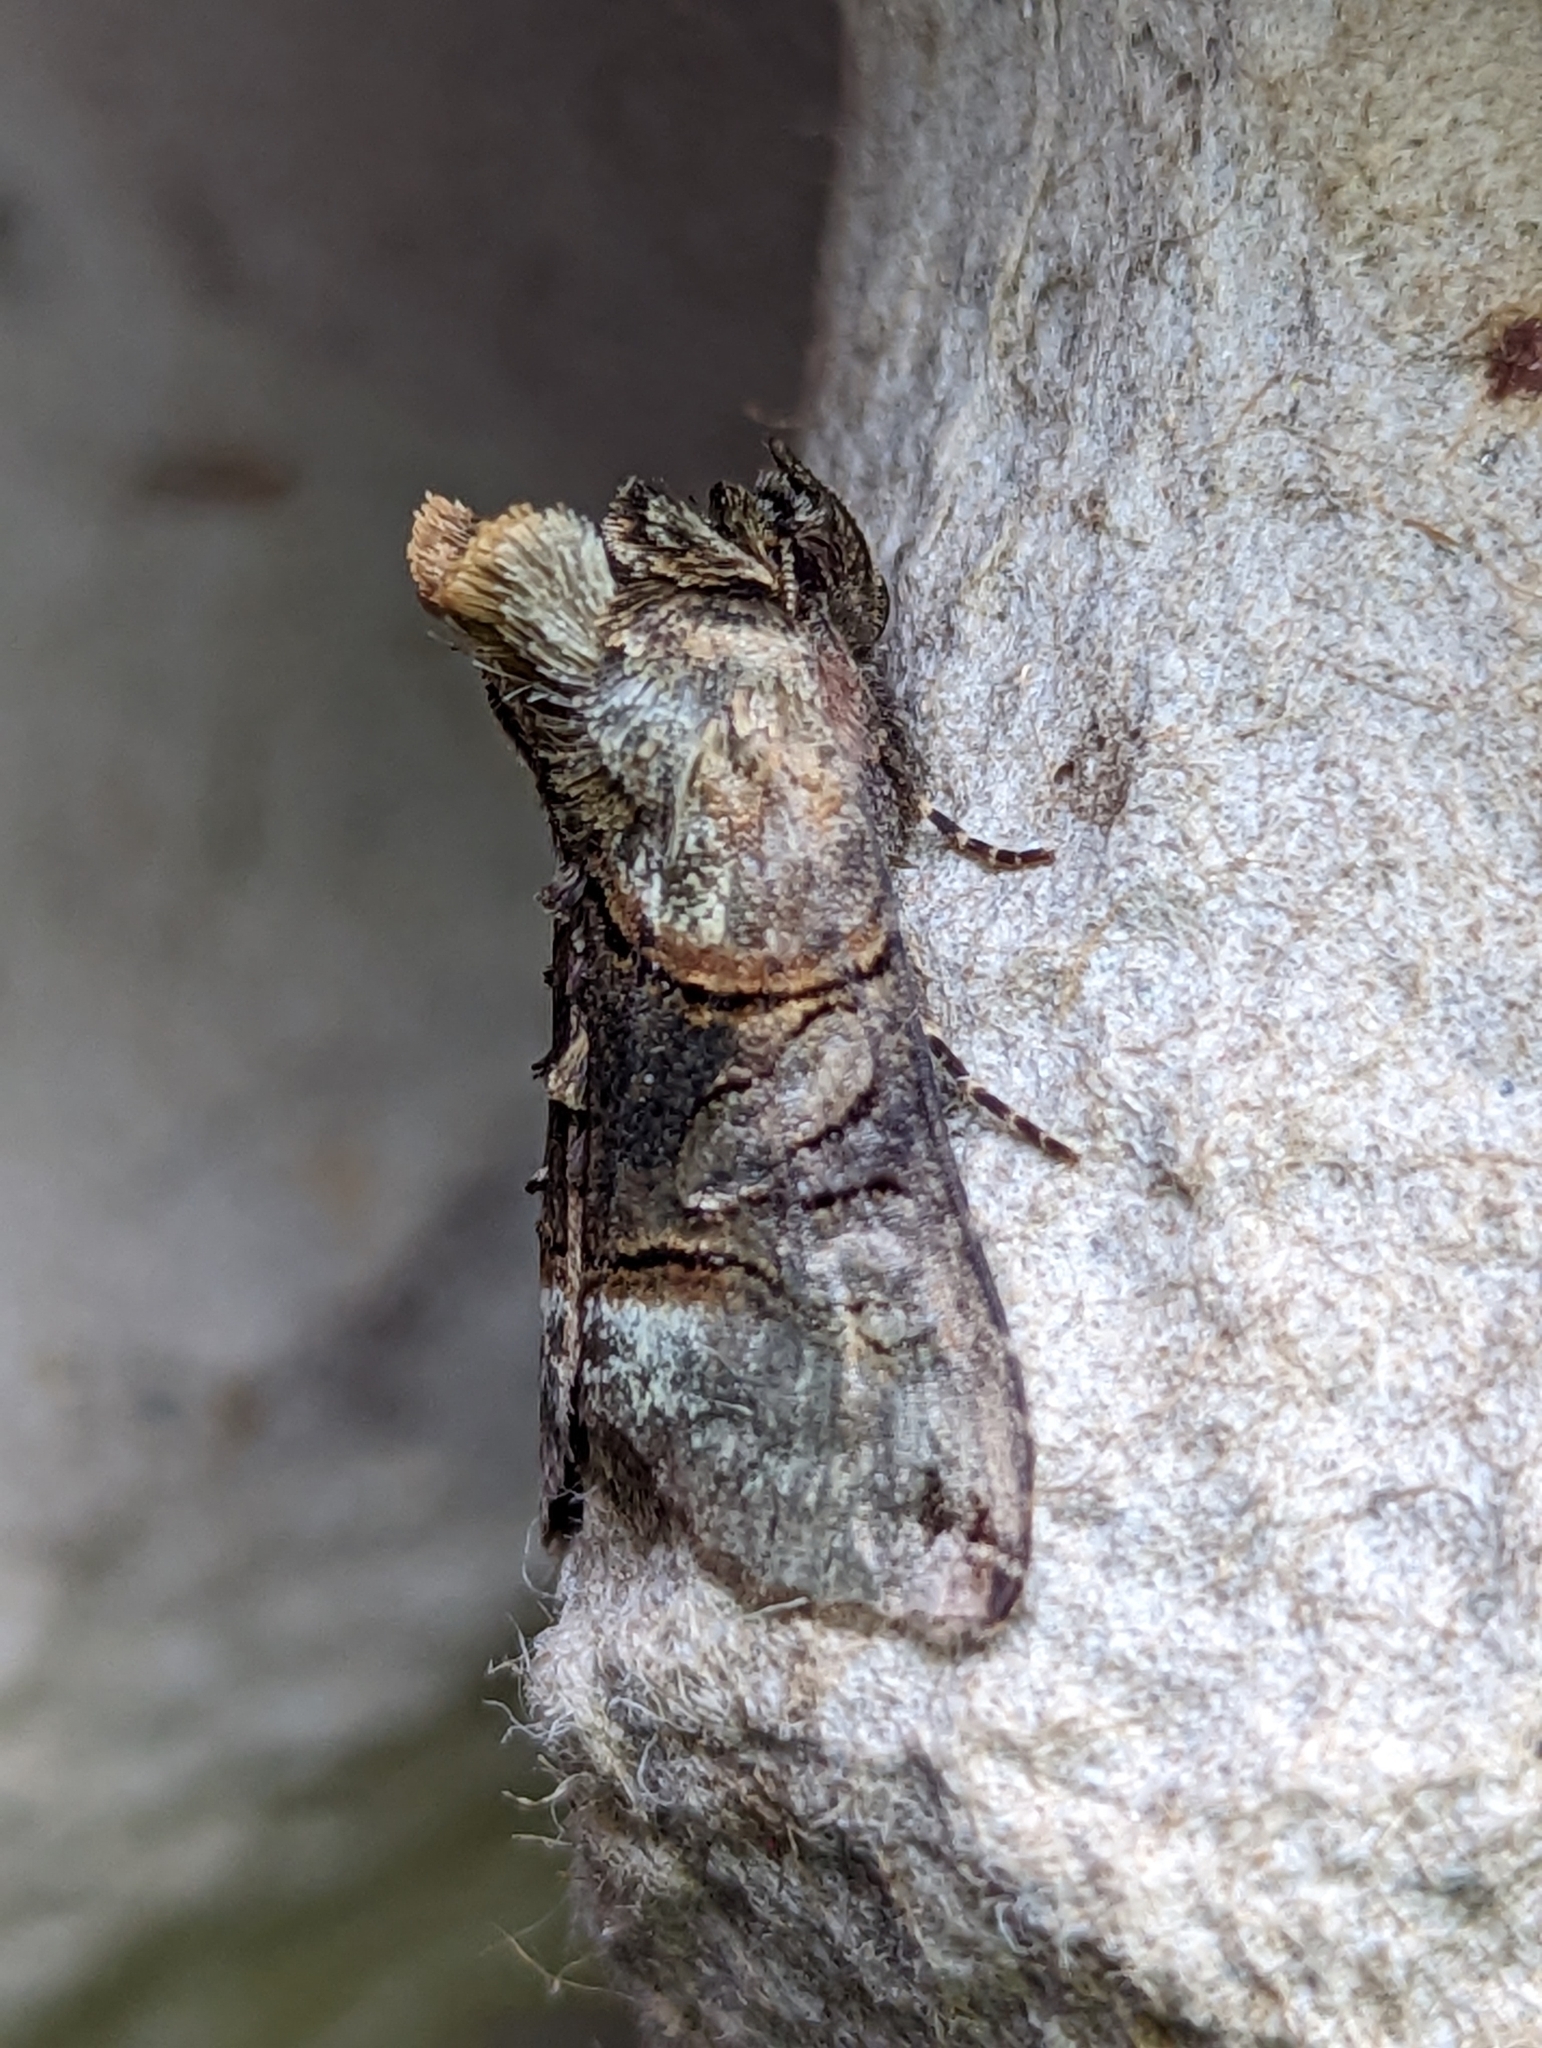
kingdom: Animalia
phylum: Arthropoda
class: Insecta
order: Lepidoptera
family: Noctuidae
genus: Abrostola
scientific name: Abrostola tripartita
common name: Spectacle
